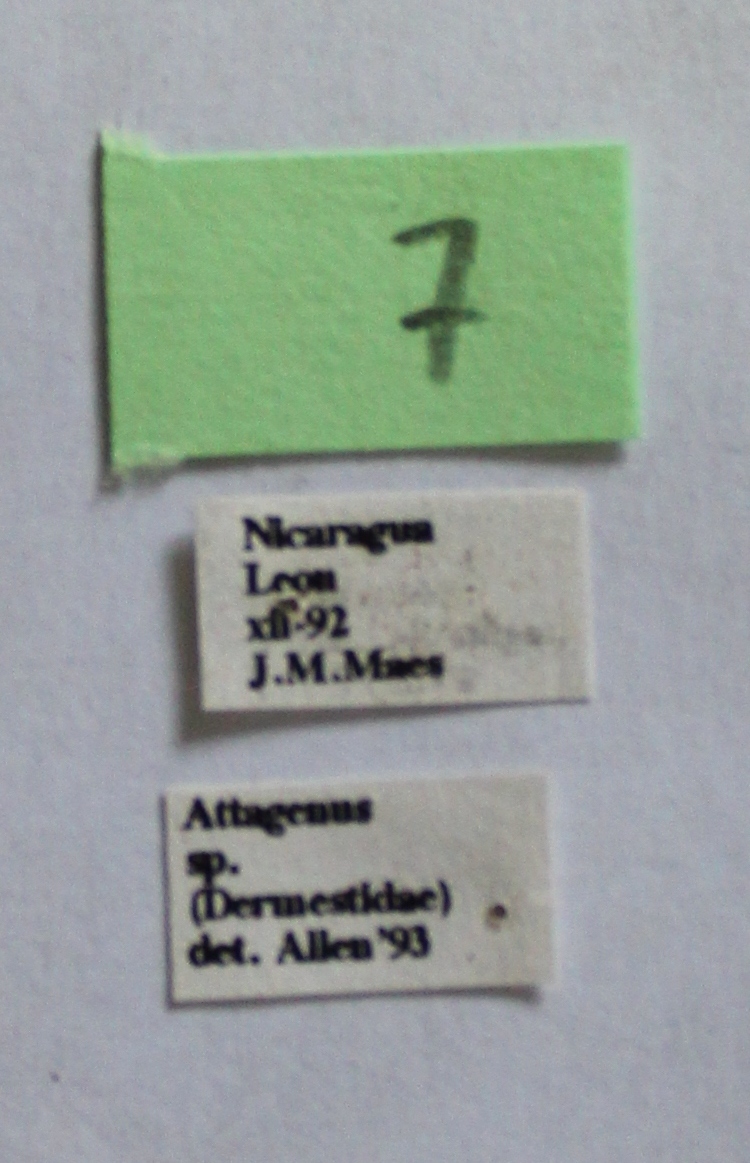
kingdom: Animalia
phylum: Arthropoda
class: Insecta
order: Coleoptera
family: Dermestidae
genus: Attagenus
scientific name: Attagenus fasciatus
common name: Wardrobe beetle
